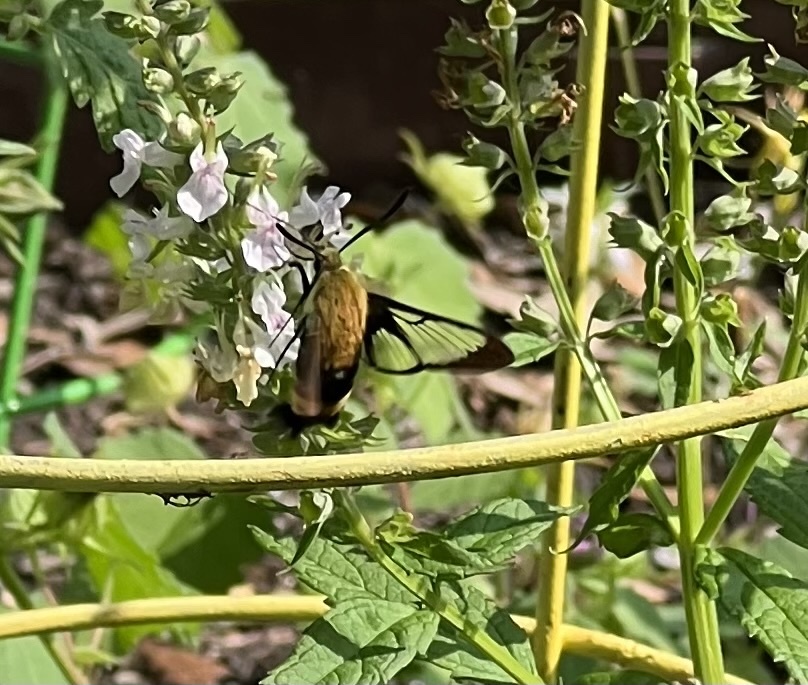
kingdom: Animalia
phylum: Arthropoda
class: Insecta
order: Lepidoptera
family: Sphingidae
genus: Hemaris
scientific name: Hemaris diffinis
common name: Bumblebee moth
